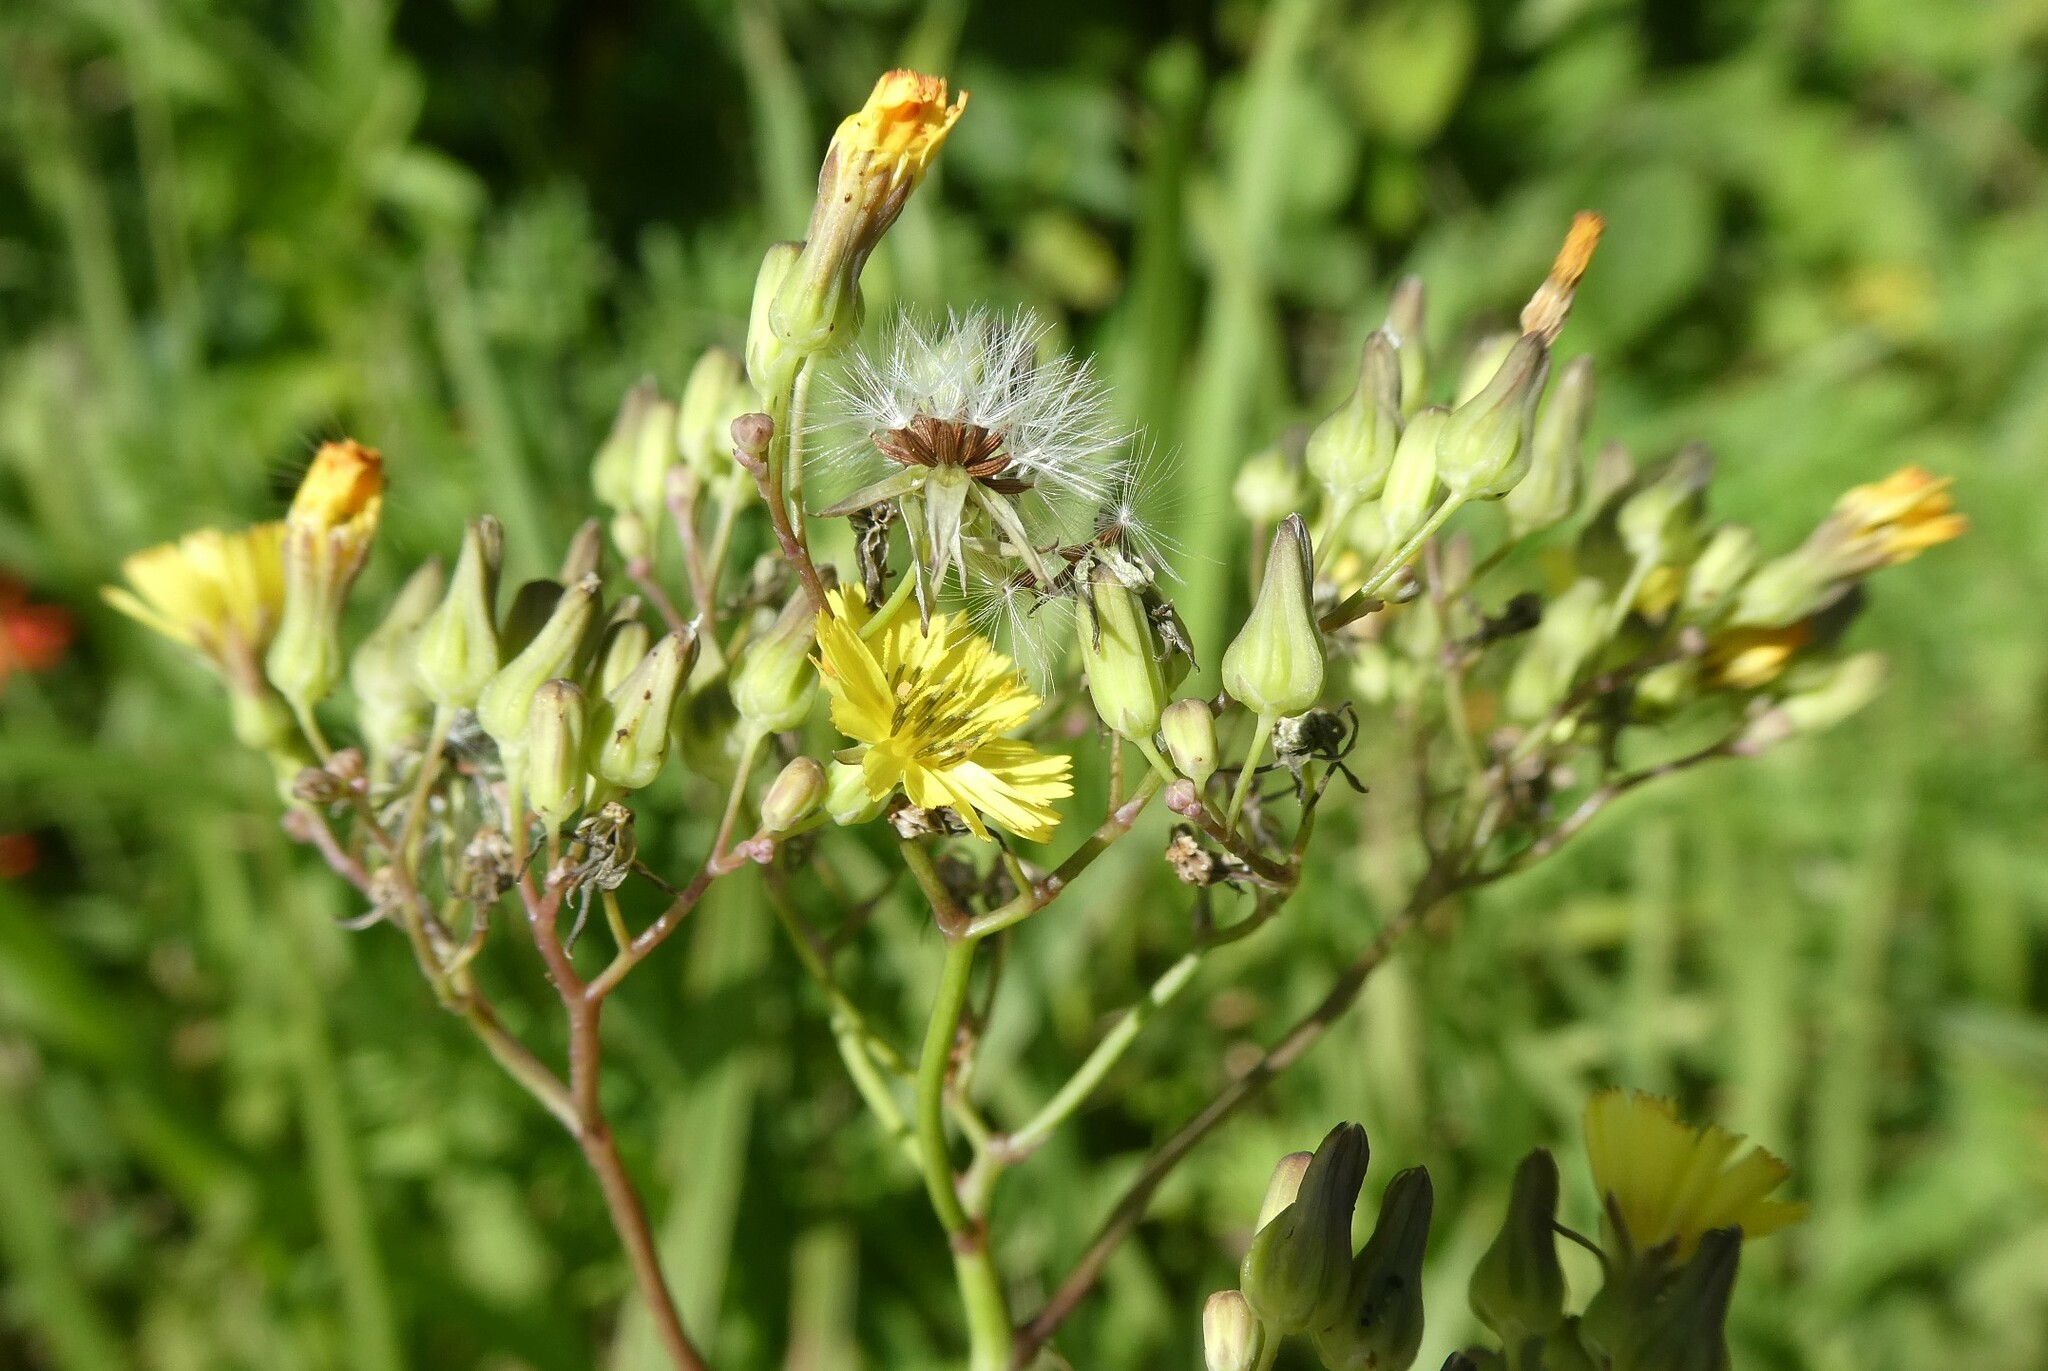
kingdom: Plantae
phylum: Tracheophyta
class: Magnoliopsida
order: Asterales
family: Asteraceae
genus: Youngia
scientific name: Youngia japonica
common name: Oriental false hawksbeard
